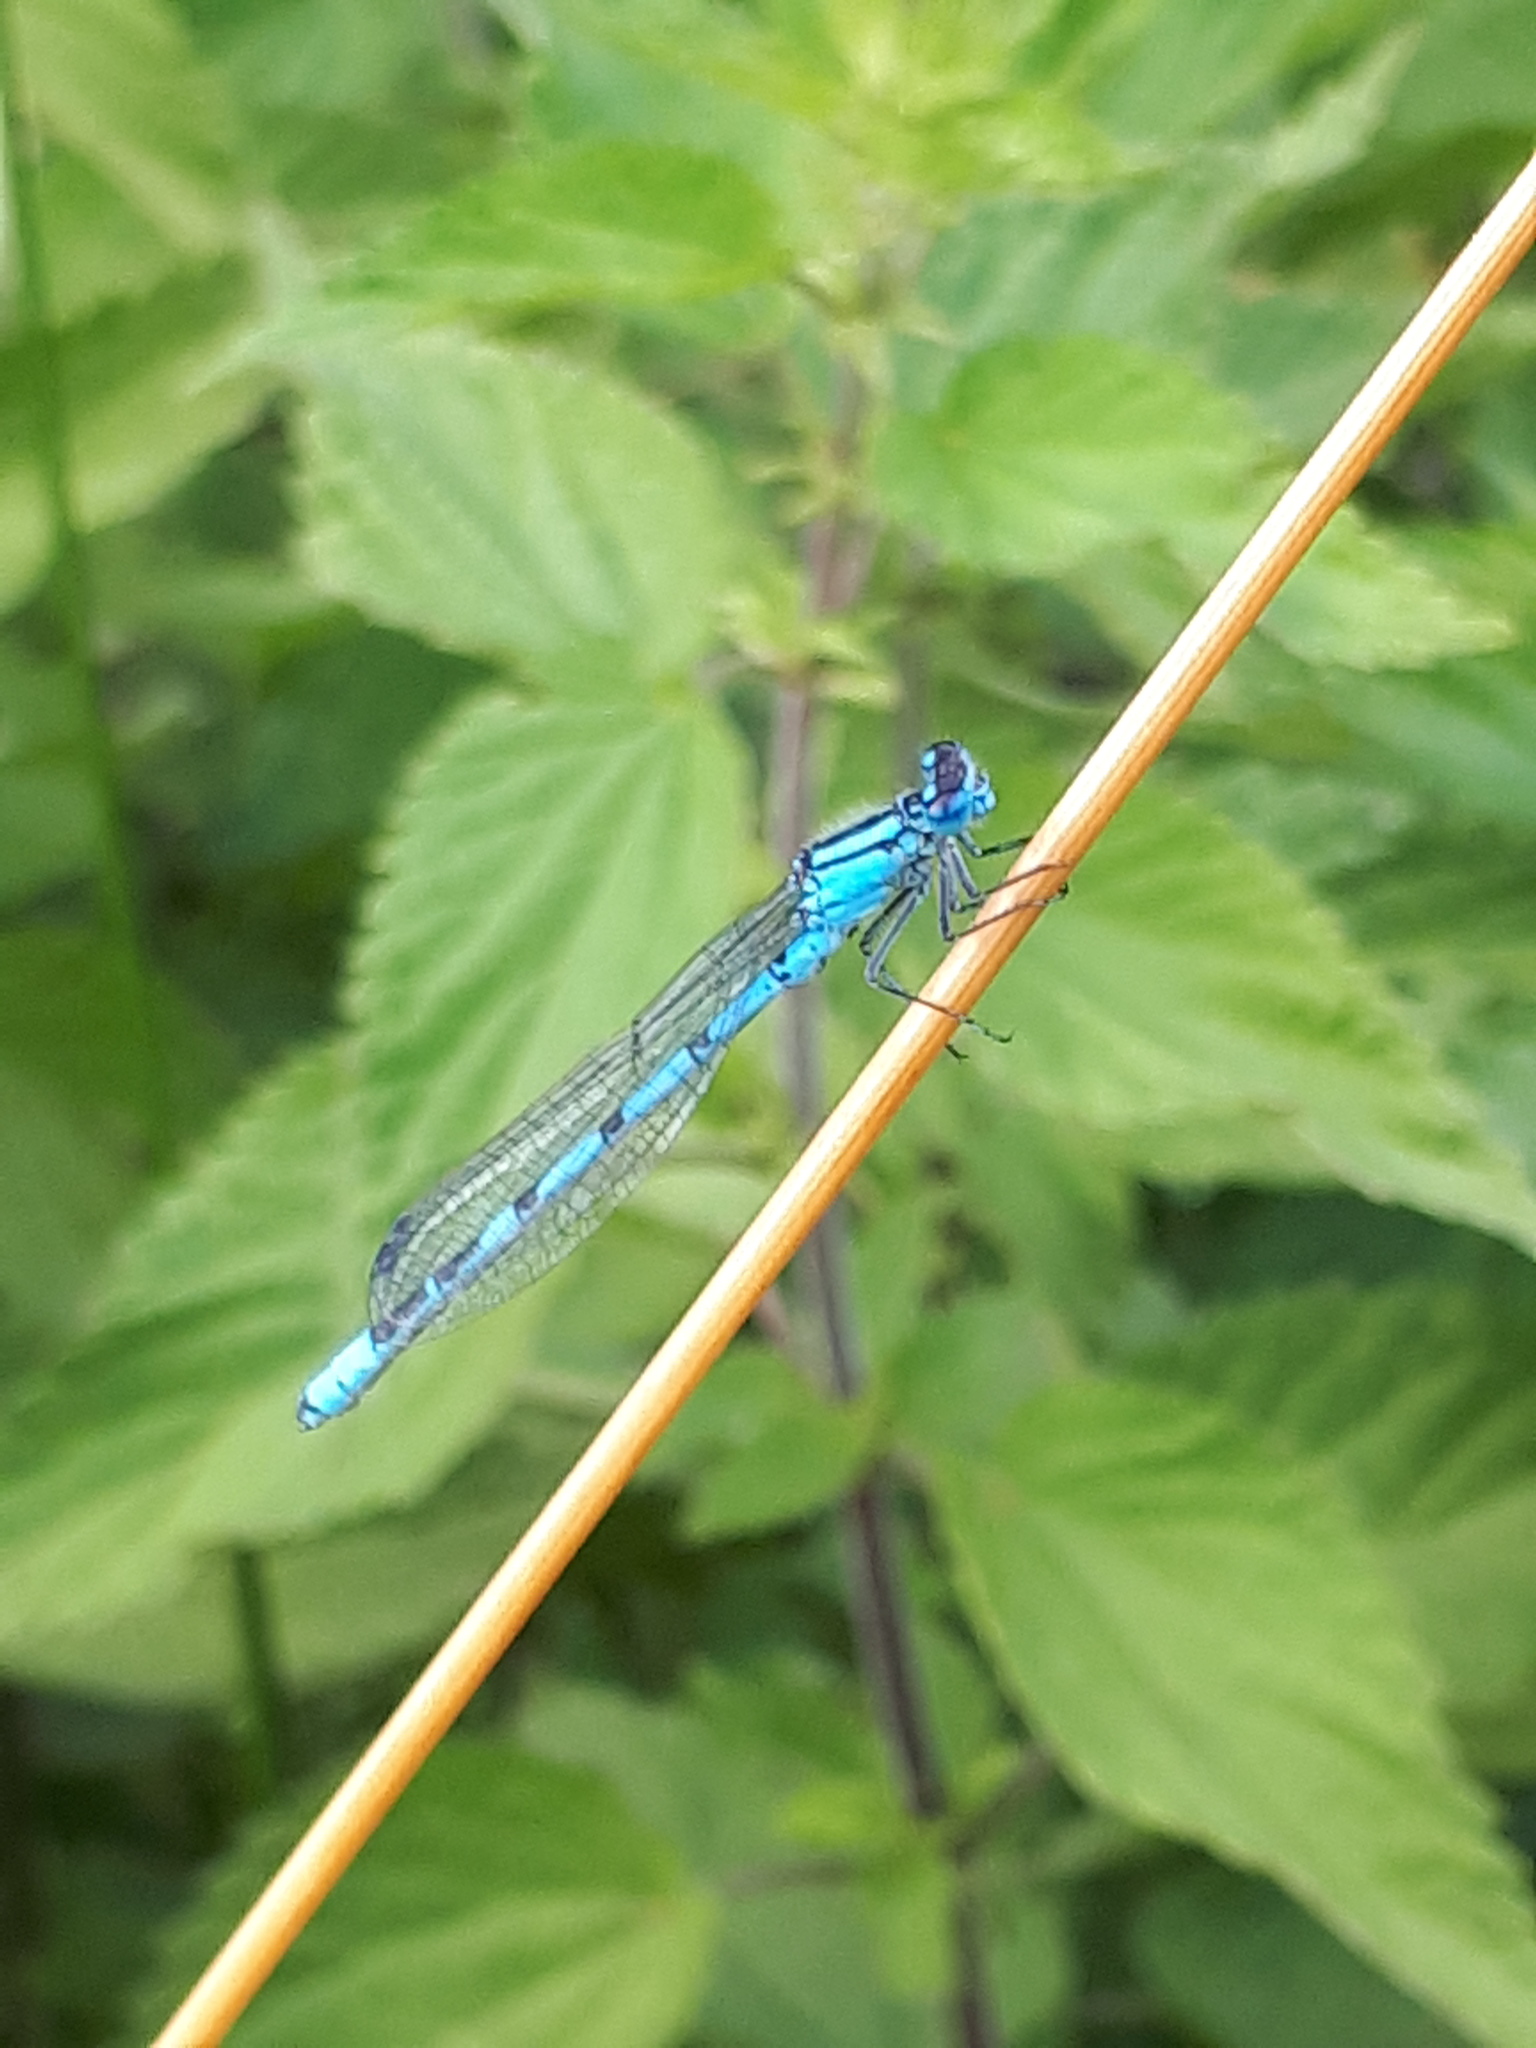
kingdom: Animalia
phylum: Arthropoda
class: Insecta
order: Odonata
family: Coenagrionidae
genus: Enallagma
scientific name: Enallagma cyathigerum
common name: Common blue damselfly
